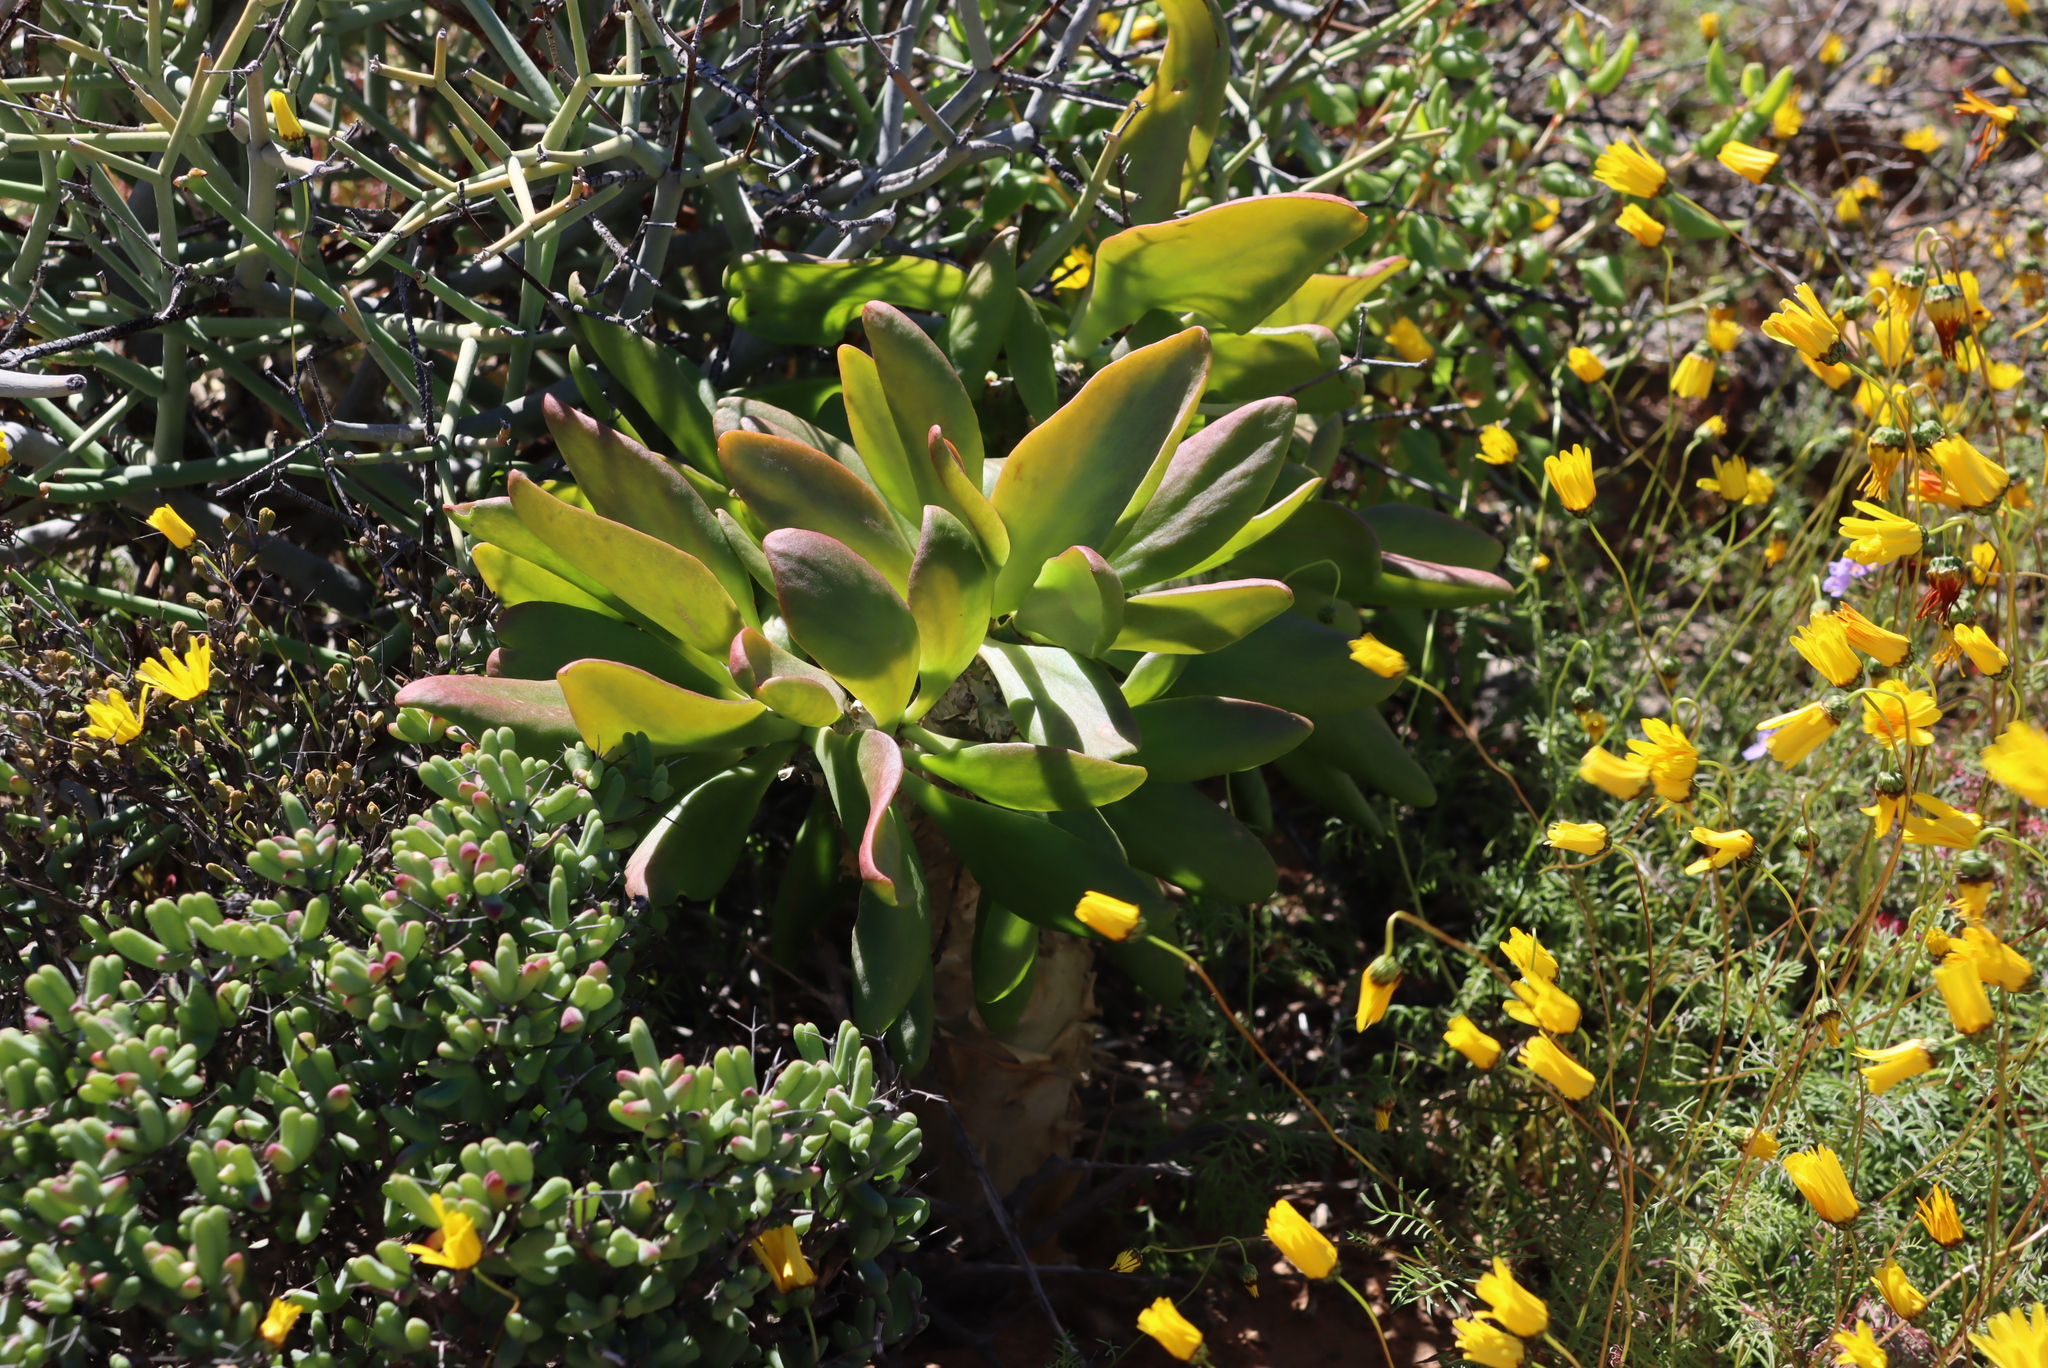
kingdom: Plantae
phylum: Tracheophyta
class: Magnoliopsida
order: Saxifragales
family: Crassulaceae
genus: Tylecodon
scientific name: Tylecodon paniculatus
